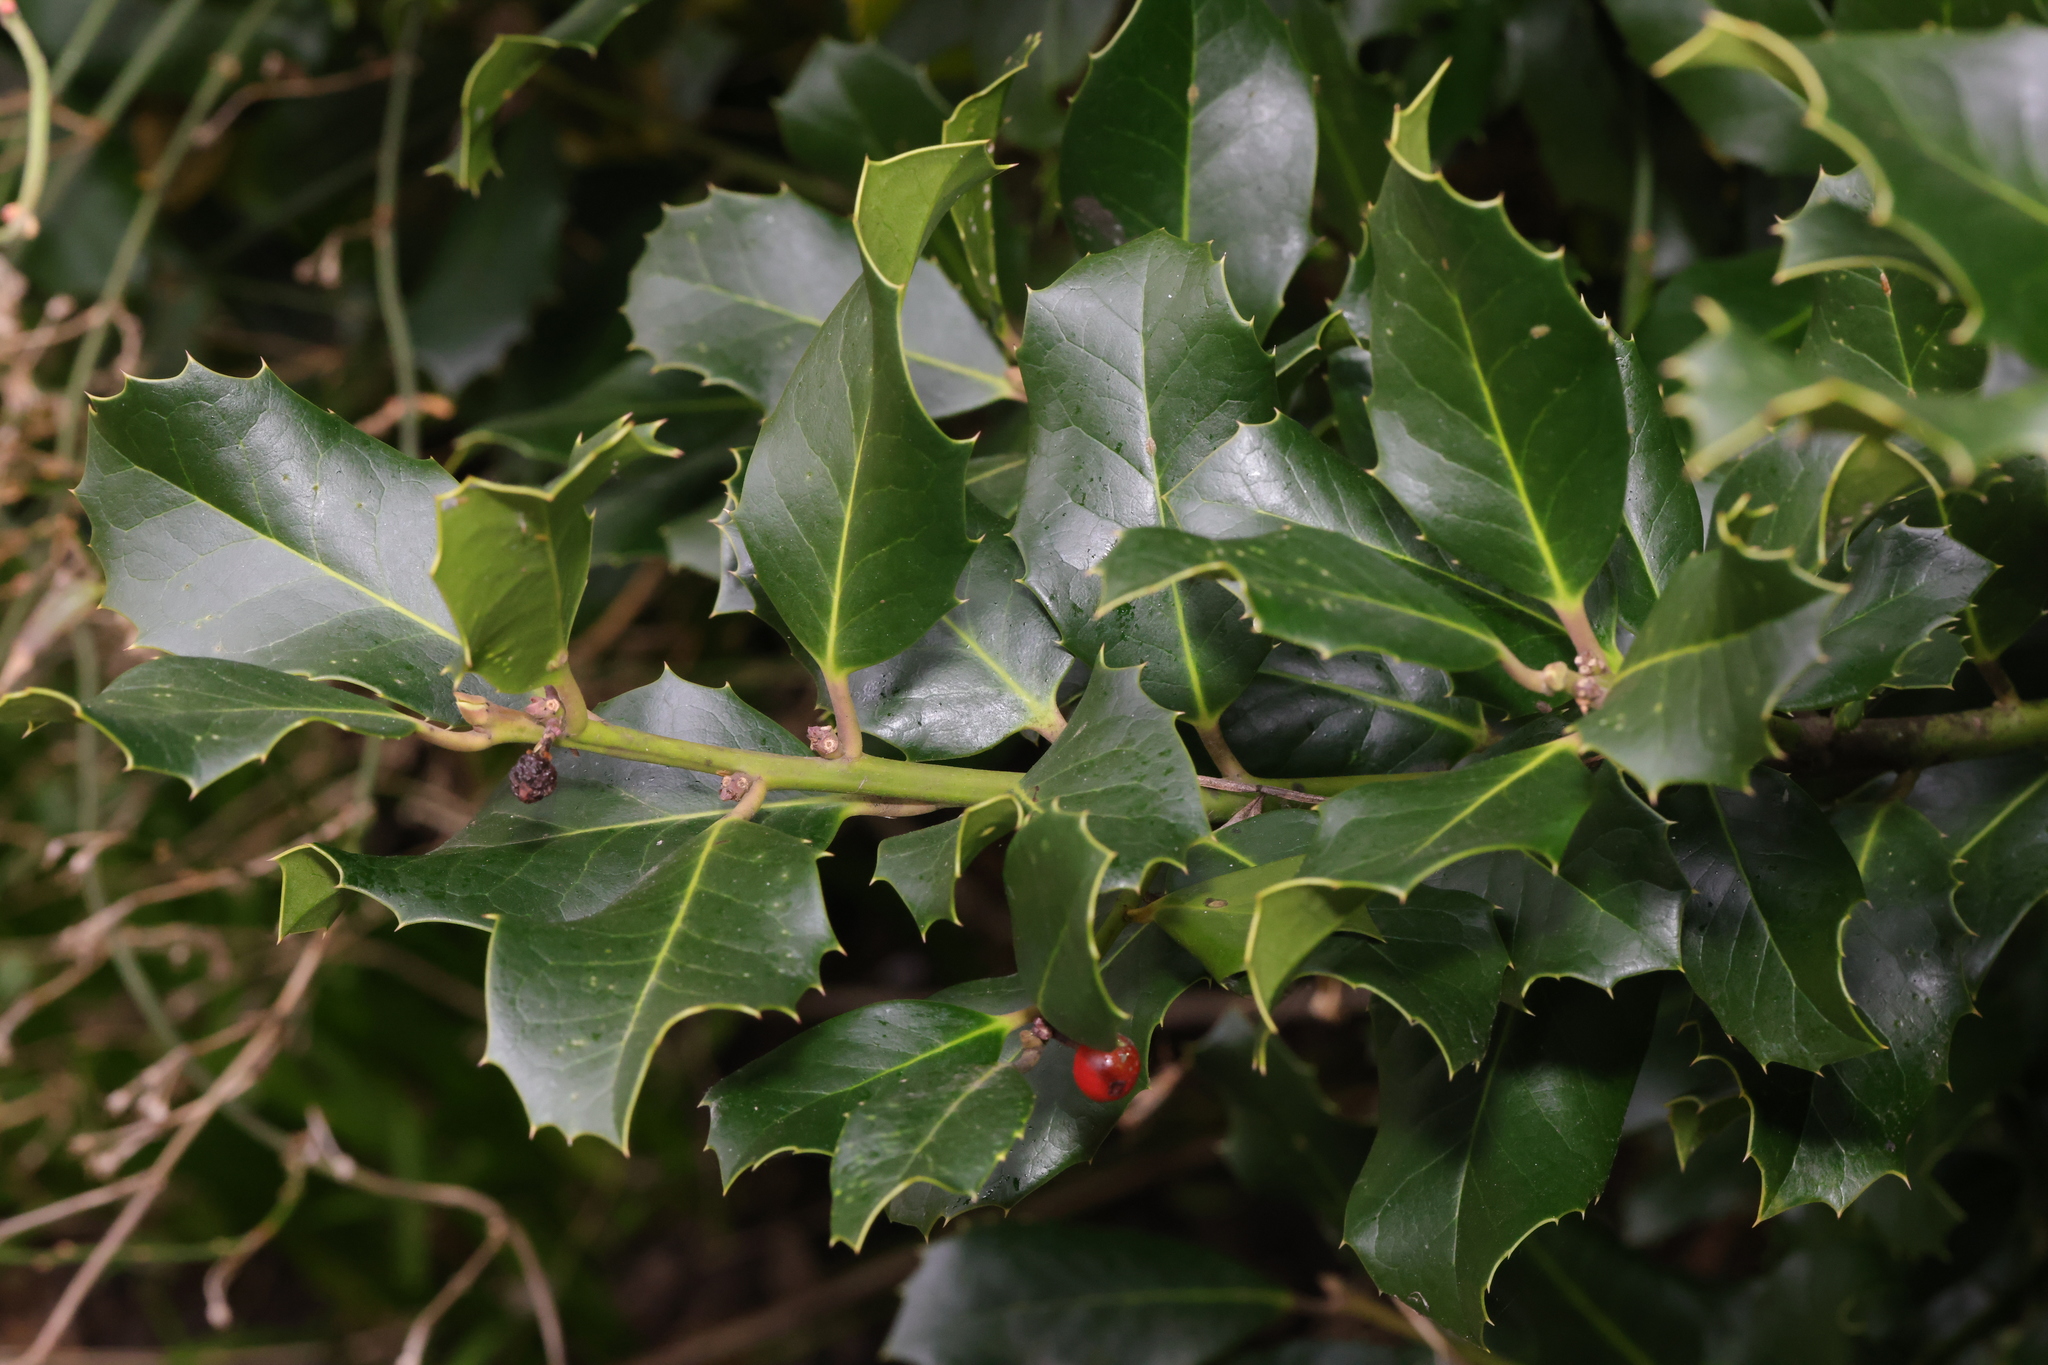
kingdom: Plantae
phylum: Tracheophyta
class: Magnoliopsida
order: Aquifoliales
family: Aquifoliaceae
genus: Ilex
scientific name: Ilex aquifolium
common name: English holly
